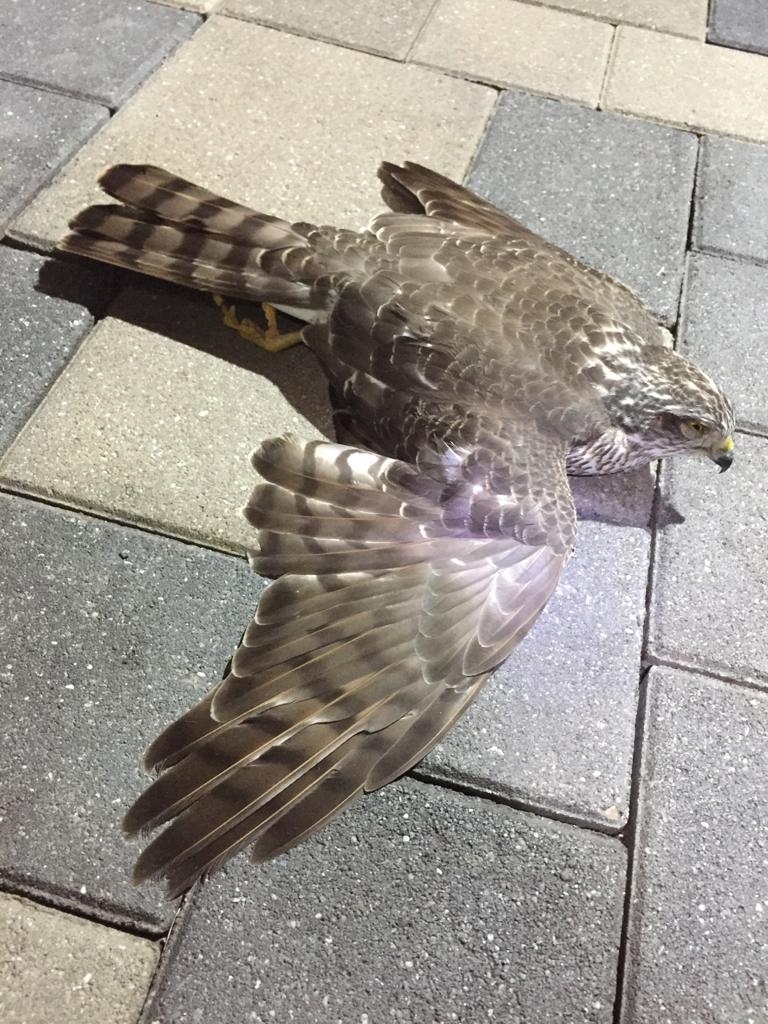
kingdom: Animalia
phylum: Chordata
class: Aves
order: Accipitriformes
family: Accipitridae
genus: Accipiter
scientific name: Accipiter nisus
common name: Eurasian sparrowhawk
